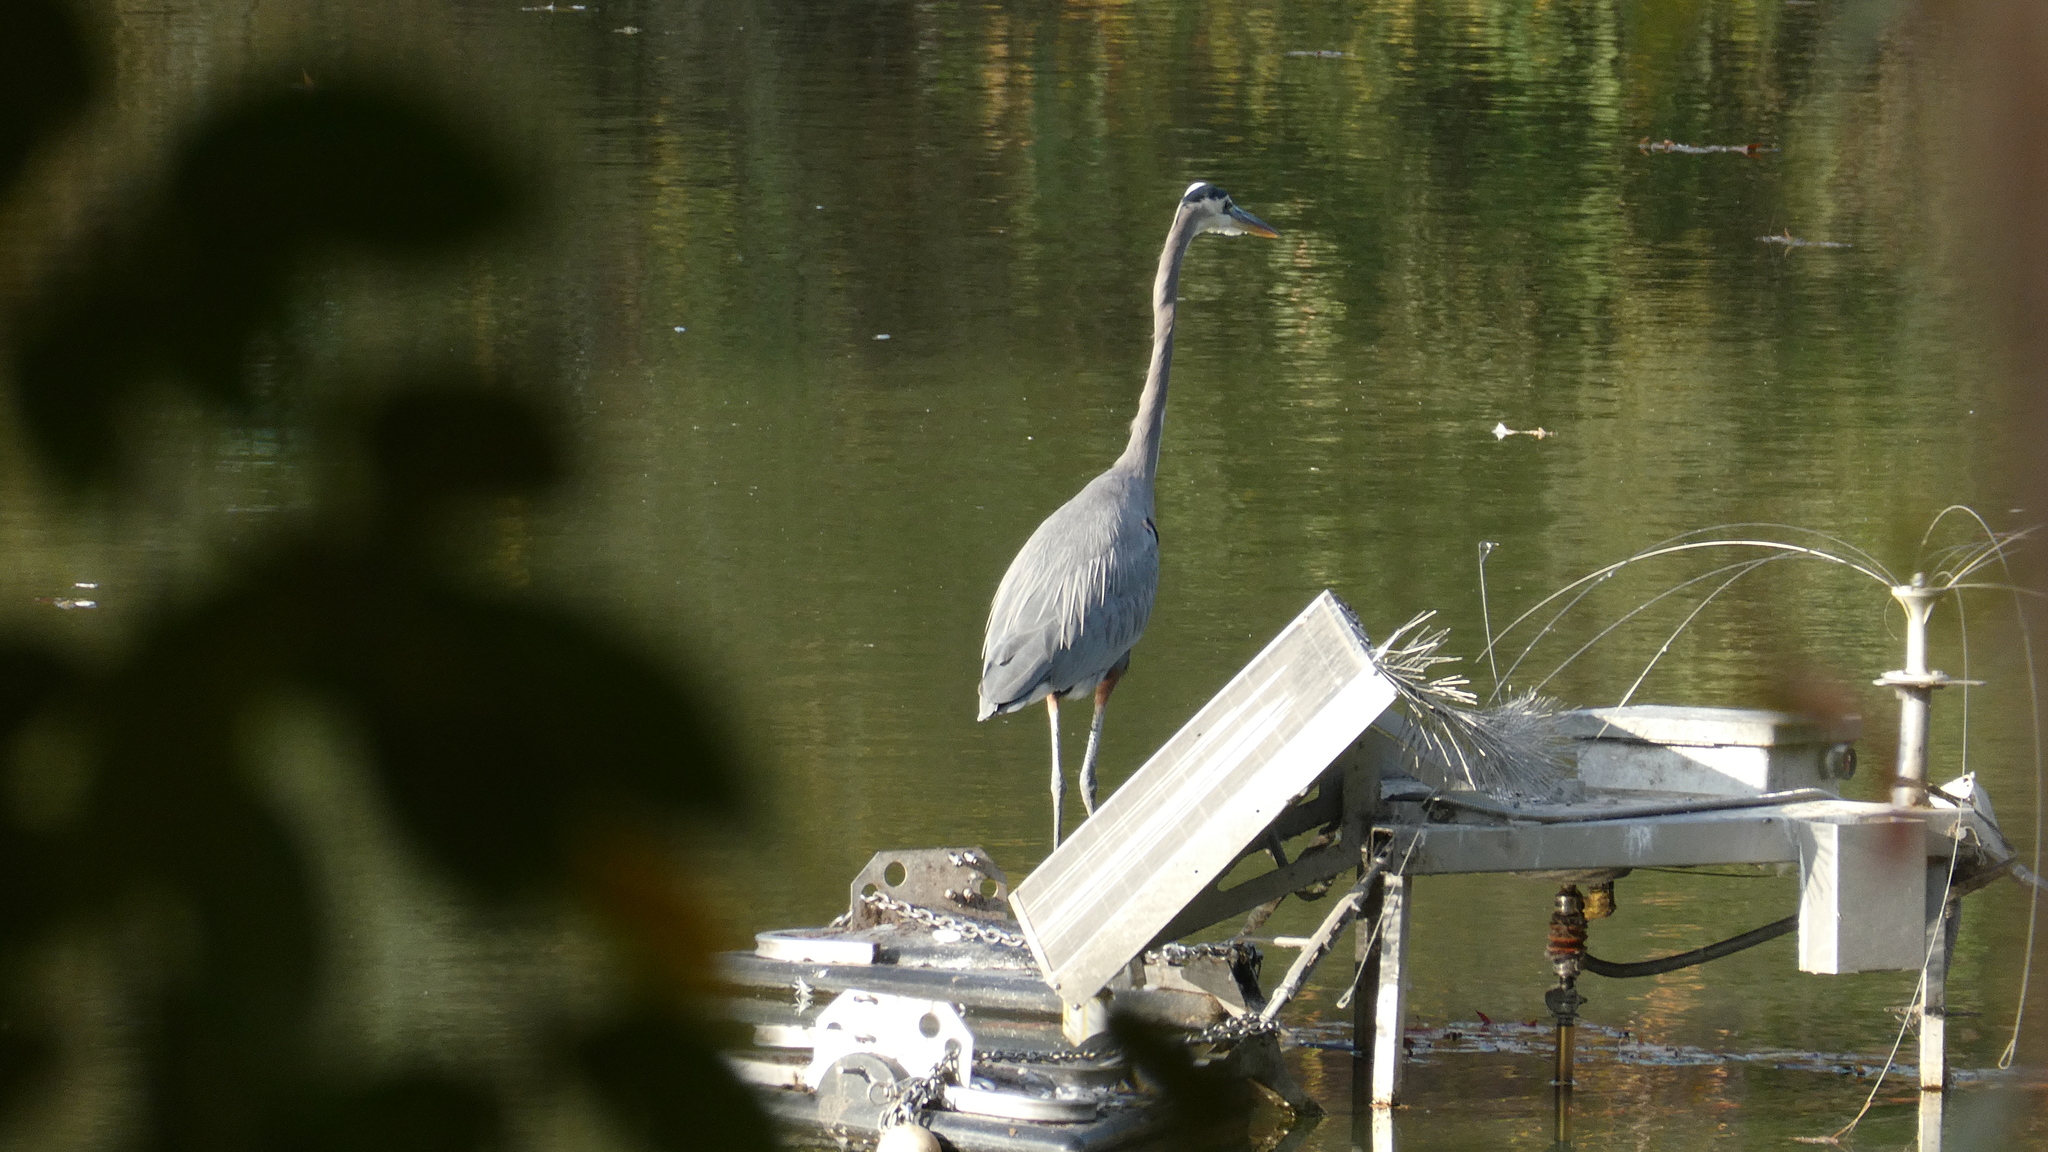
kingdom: Animalia
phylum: Chordata
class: Aves
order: Pelecaniformes
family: Ardeidae
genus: Ardea
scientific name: Ardea herodias
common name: Great blue heron
